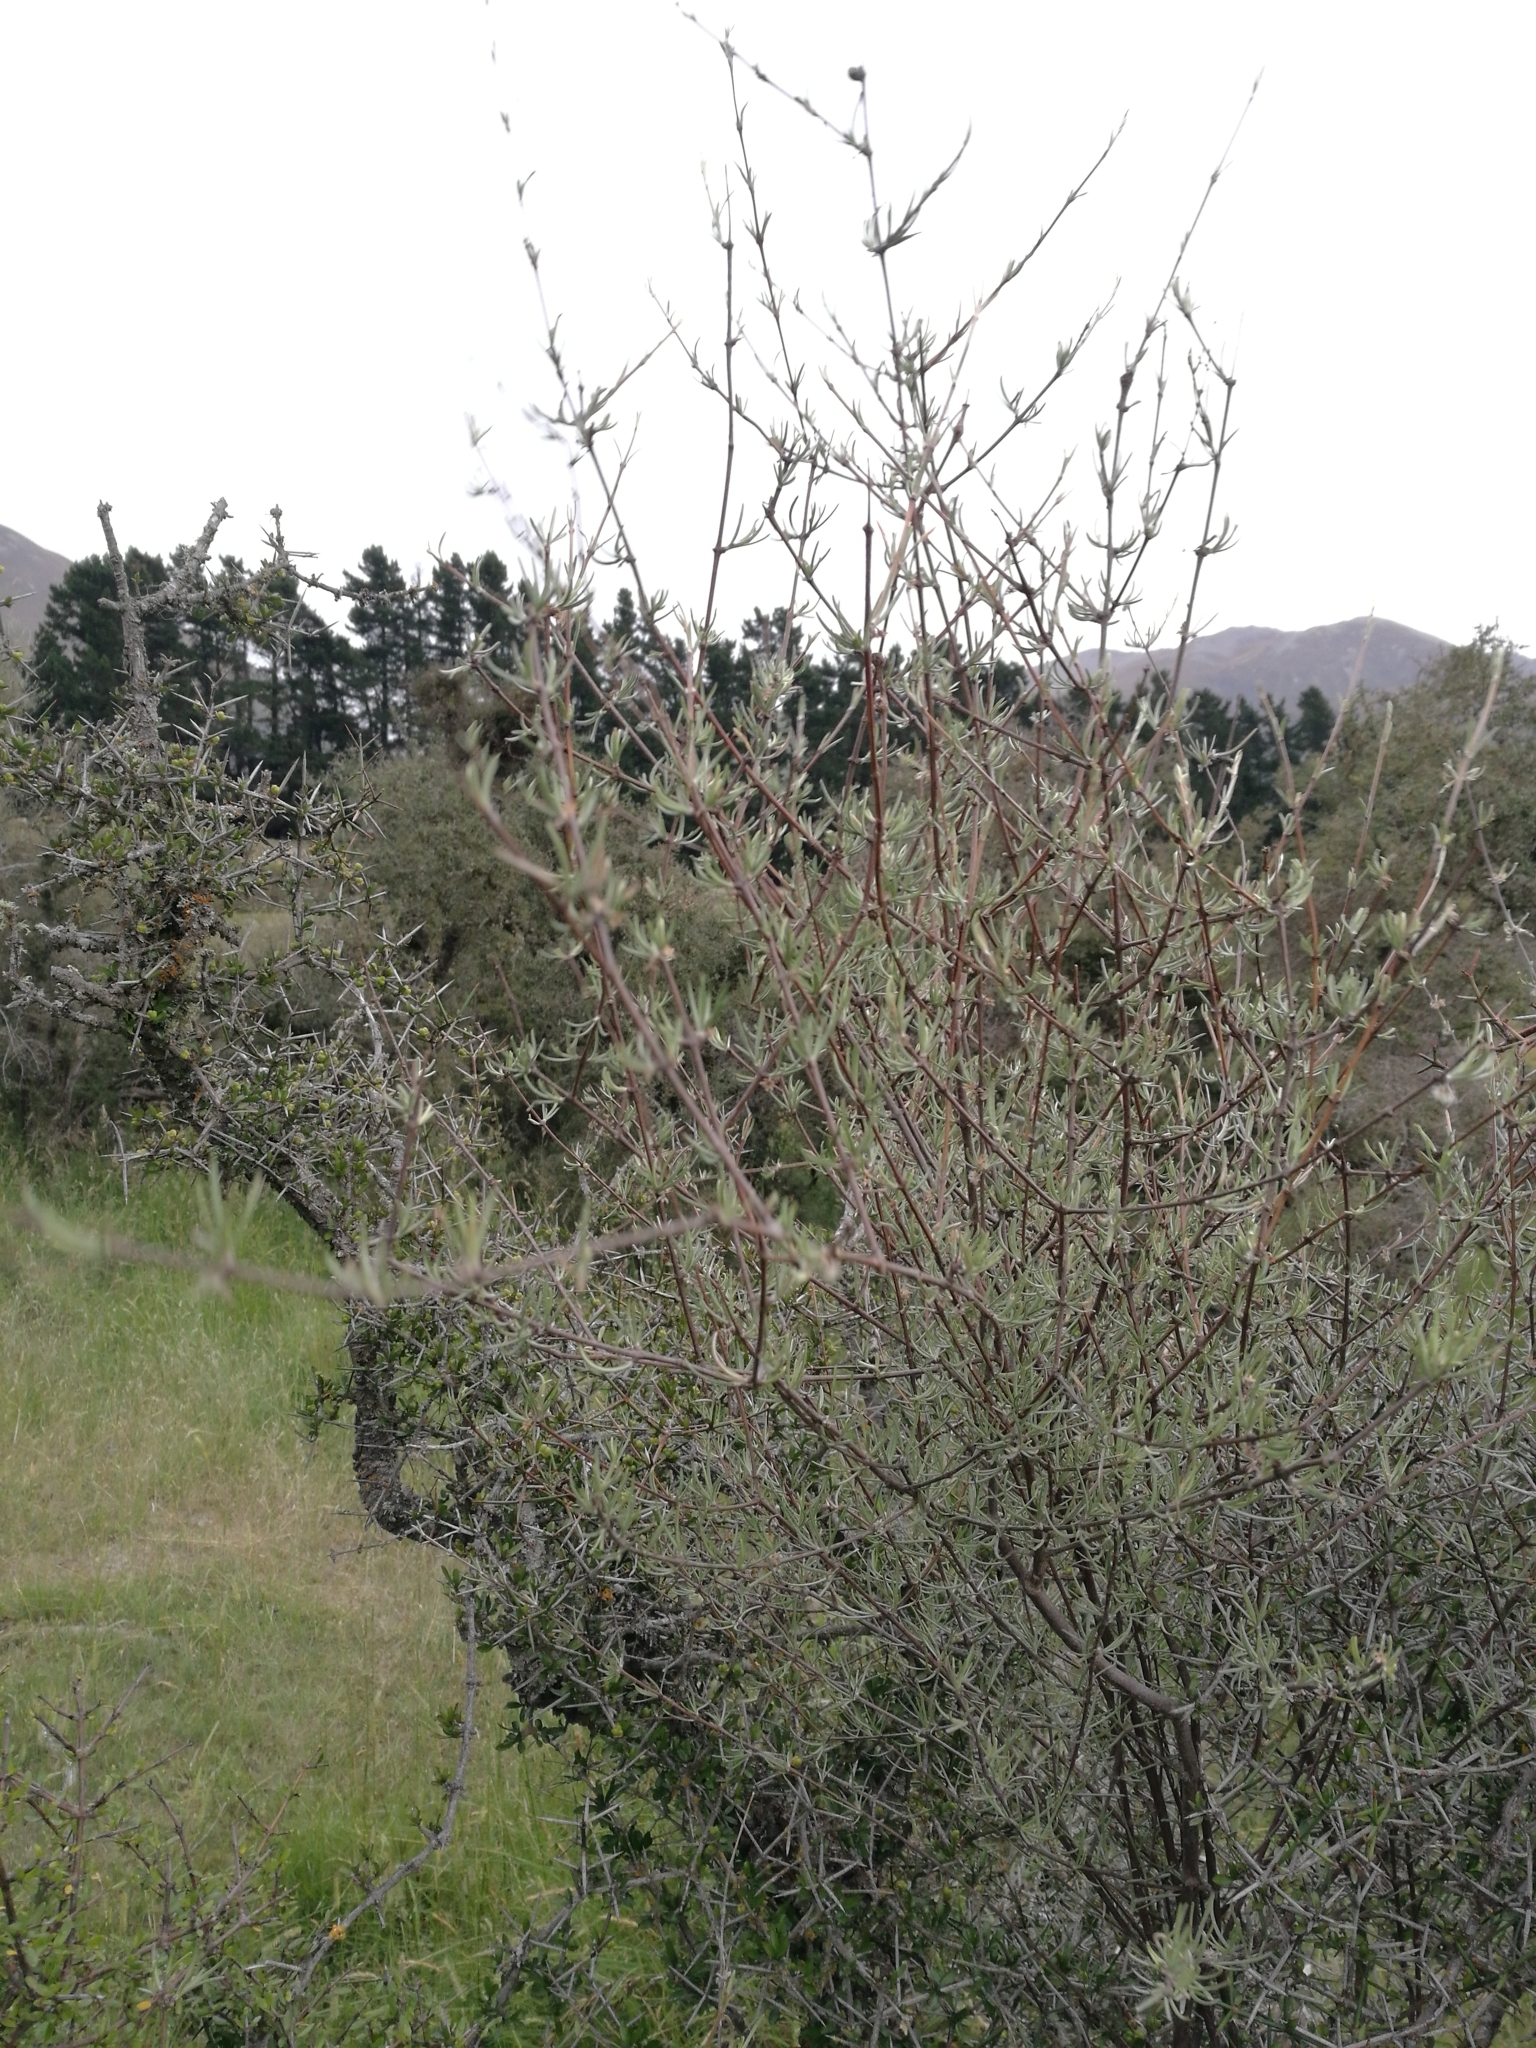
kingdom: Plantae
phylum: Tracheophyta
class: Magnoliopsida
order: Asterales
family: Asteraceae
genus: Olearia
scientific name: Olearia lineata
